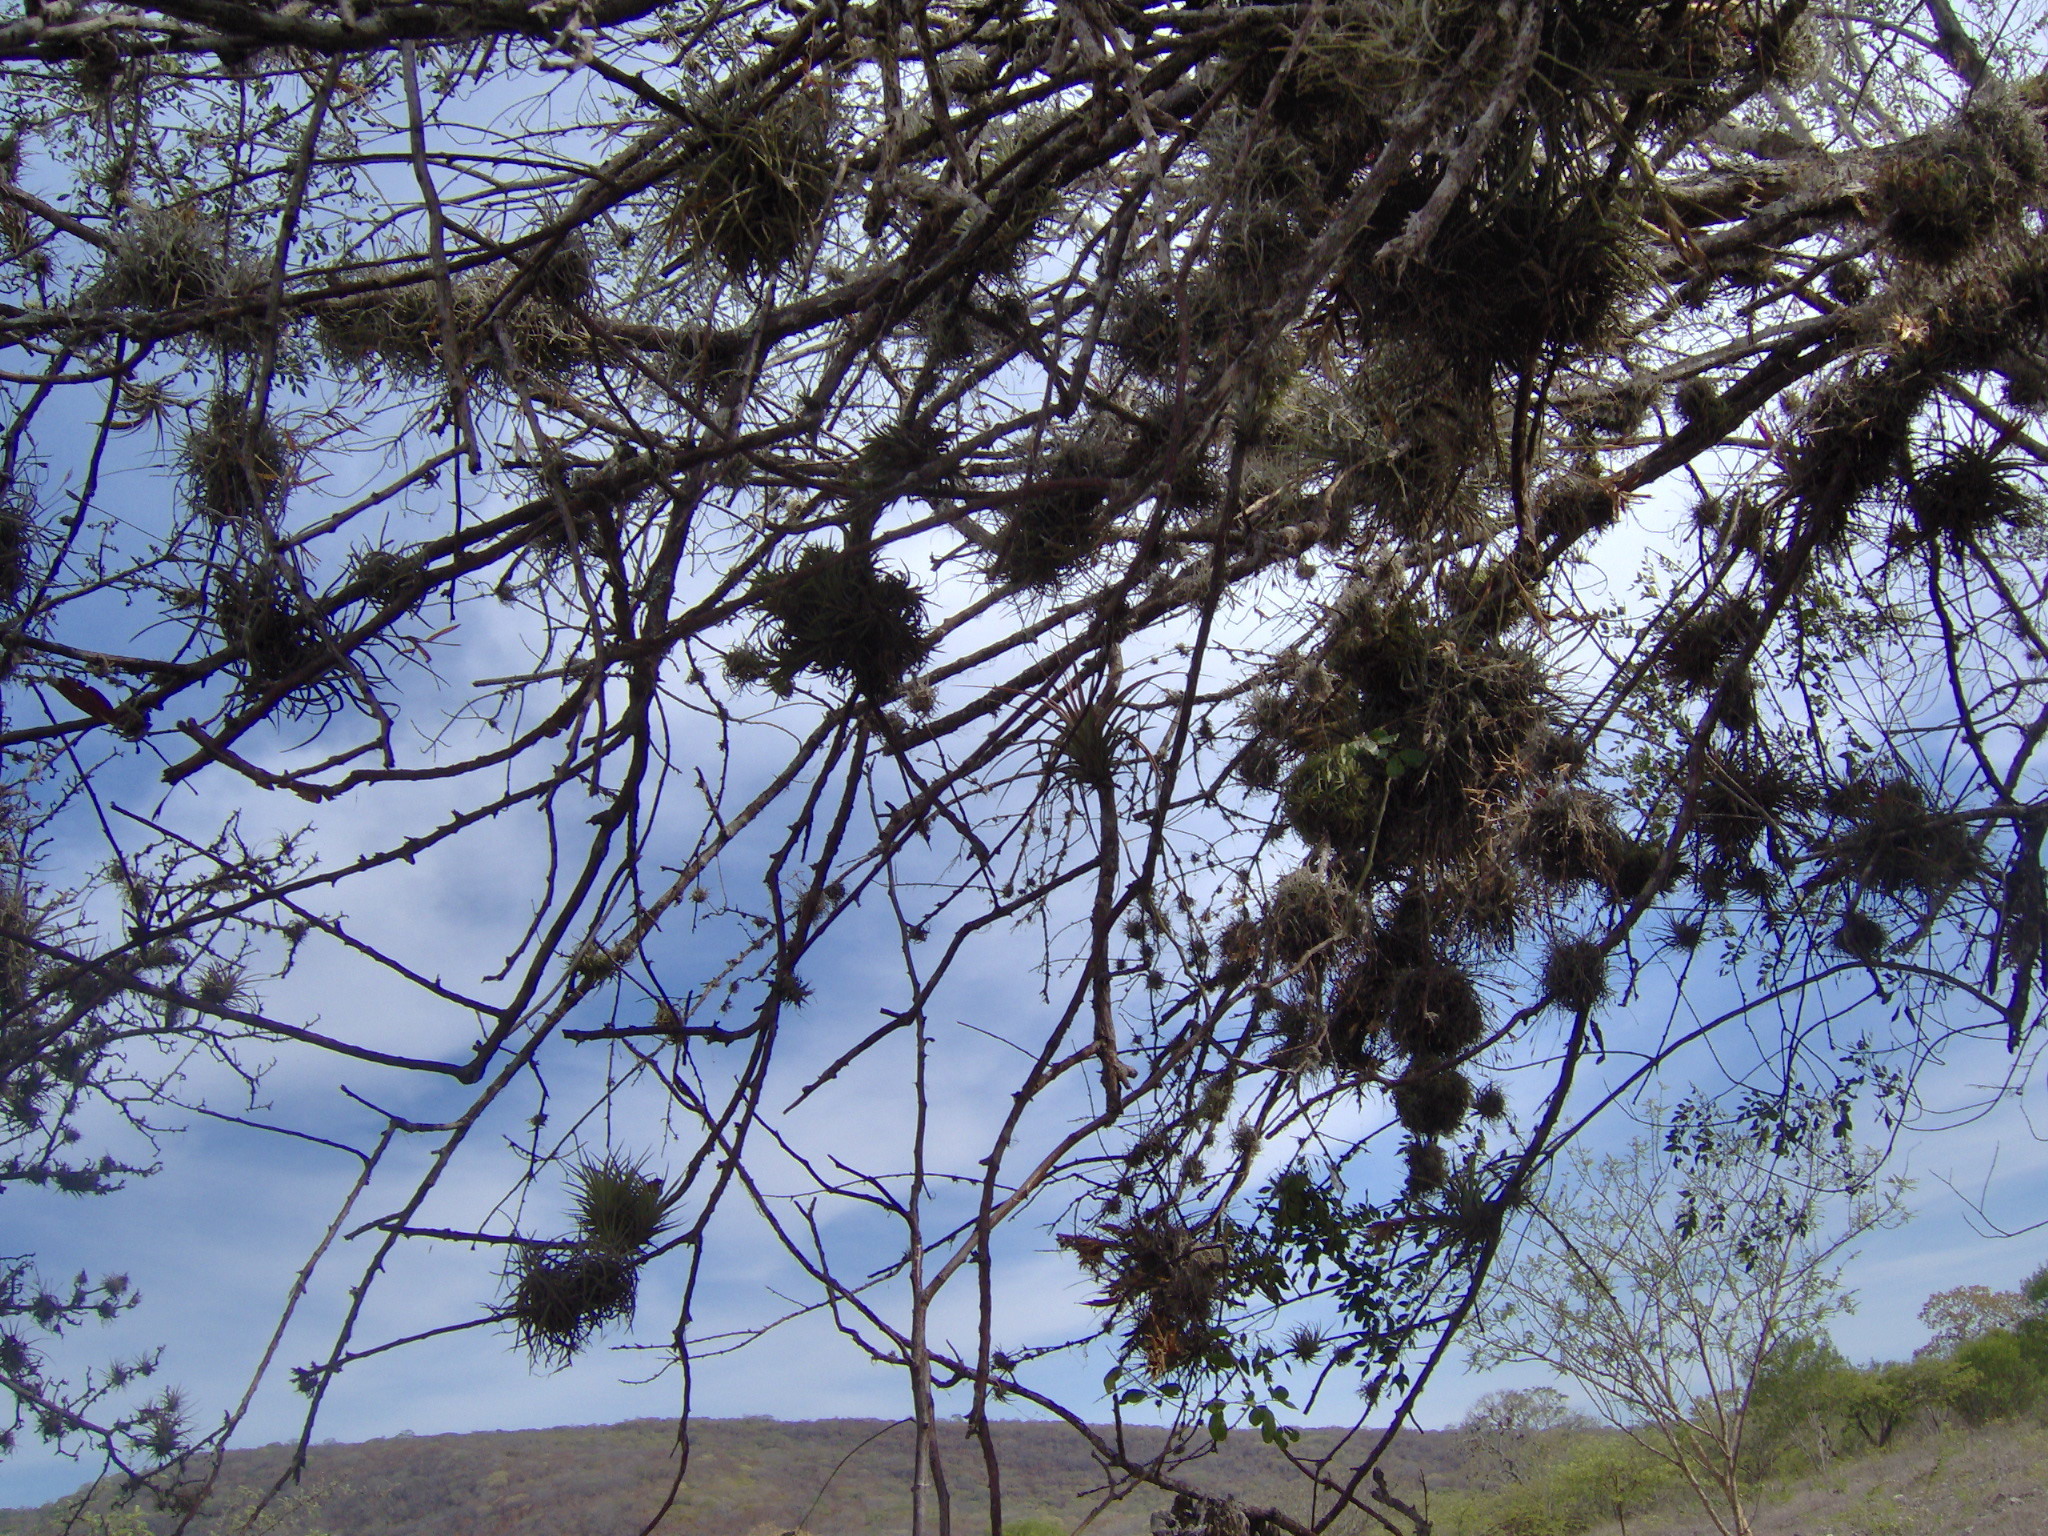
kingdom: Plantae
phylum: Tracheophyta
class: Liliopsida
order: Poales
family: Bromeliaceae
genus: Tillandsia
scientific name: Tillandsia recurvata
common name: Small ballmoss
